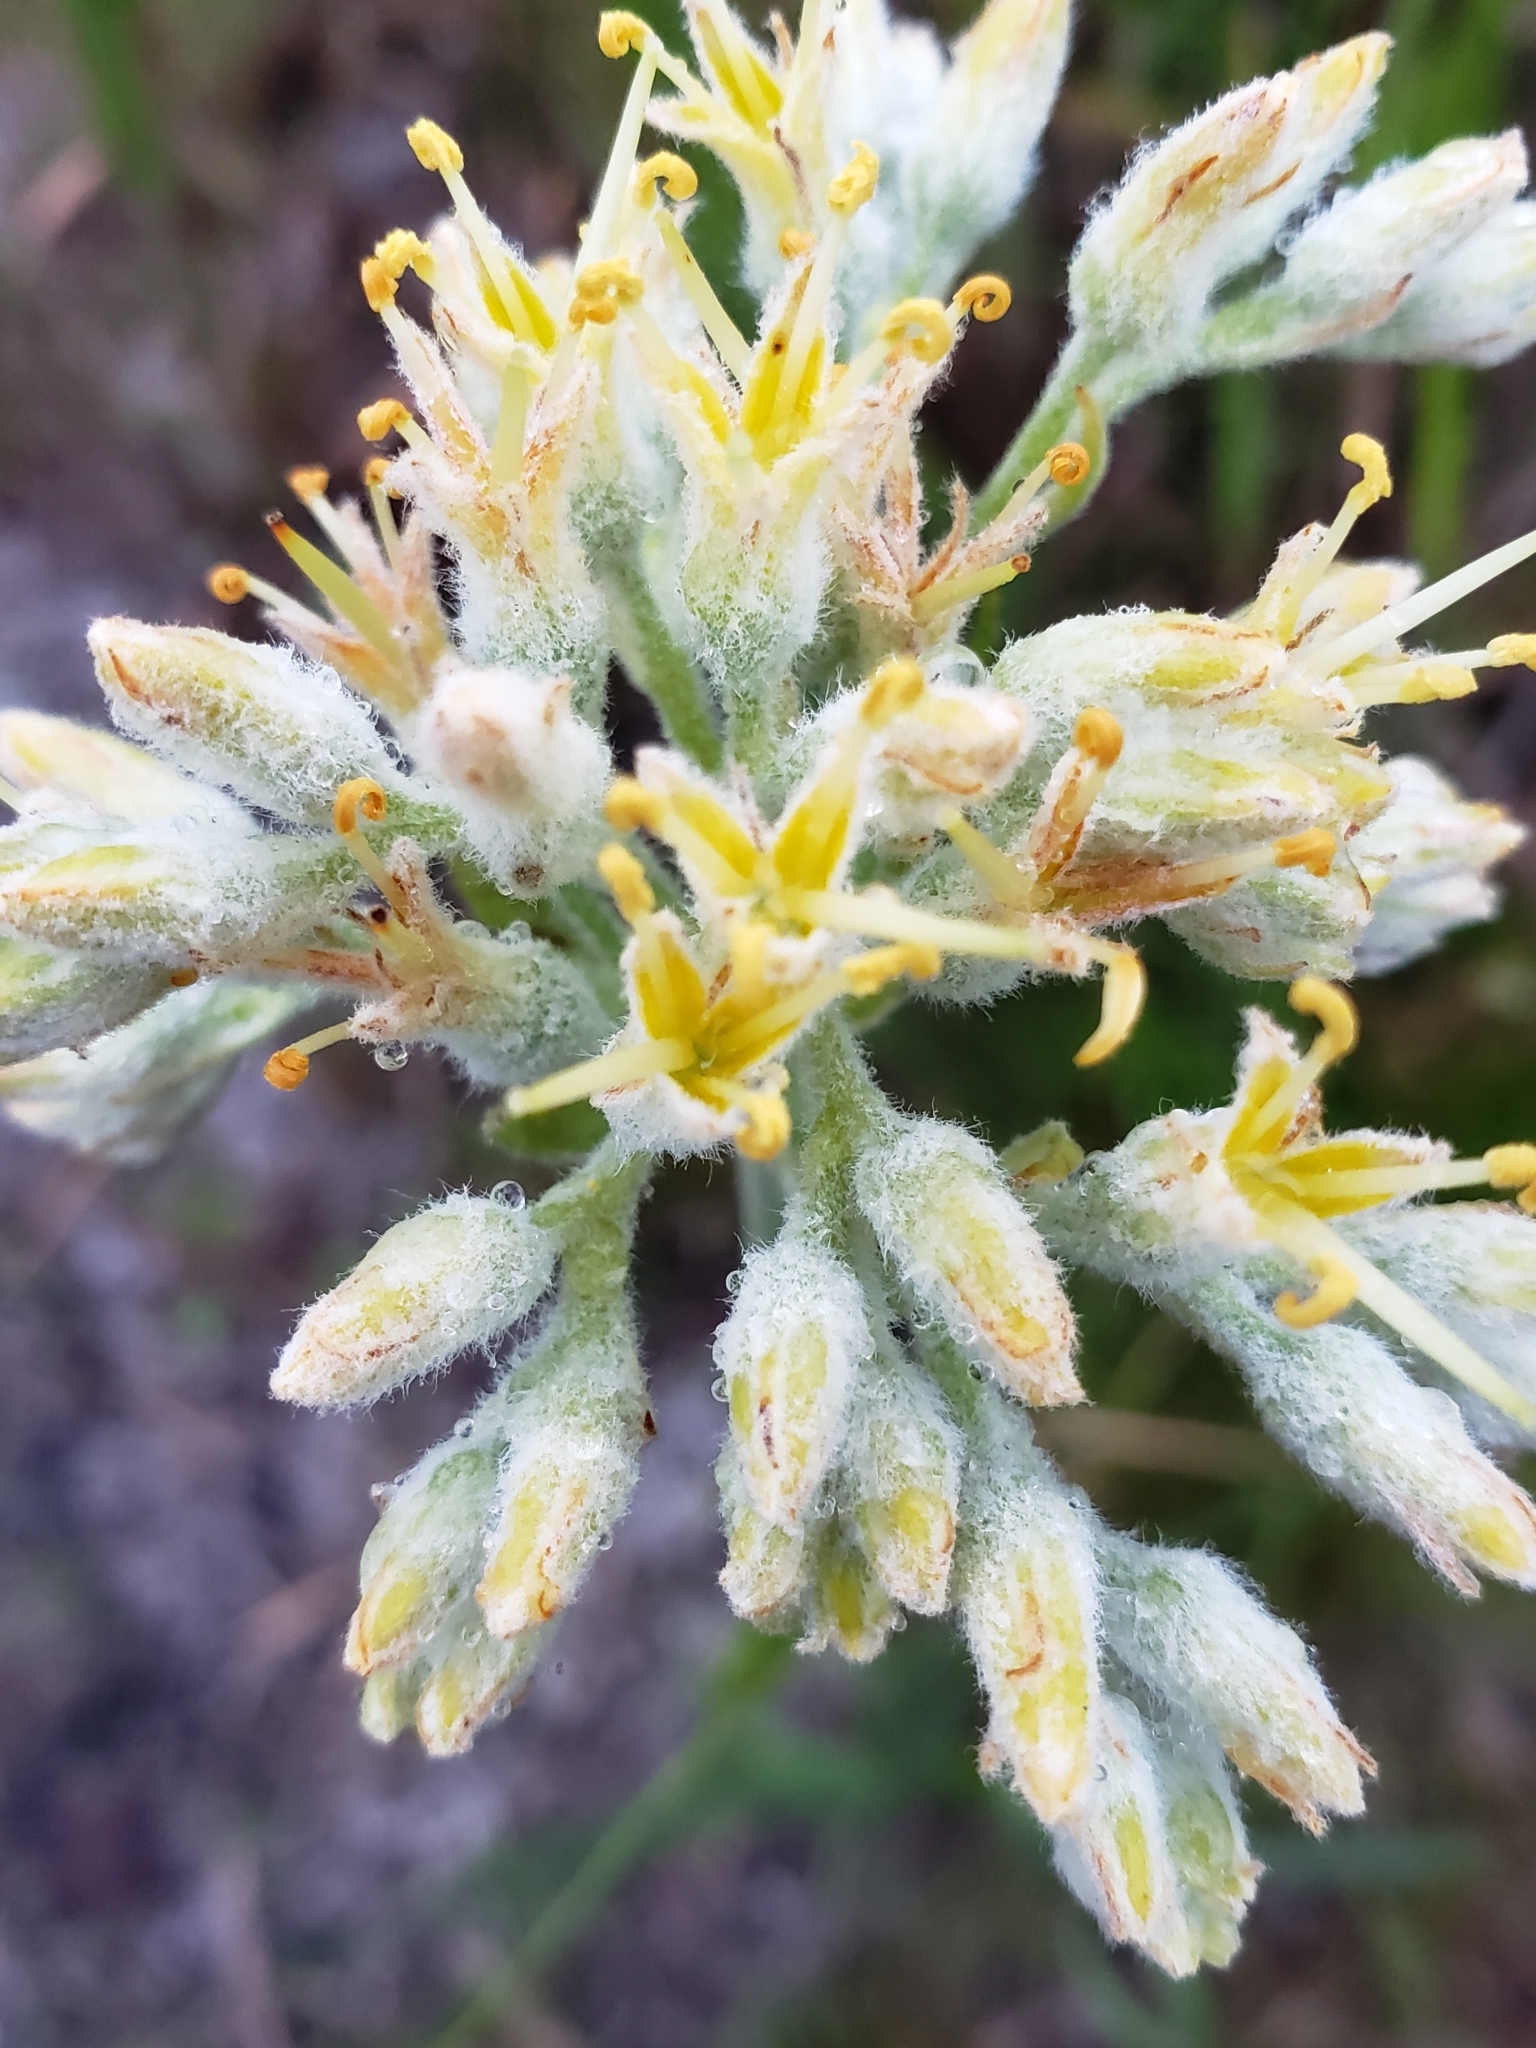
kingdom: Plantae
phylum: Tracheophyta
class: Liliopsida
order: Commelinales
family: Haemodoraceae
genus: Lachnanthes
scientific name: Lachnanthes caroliana
